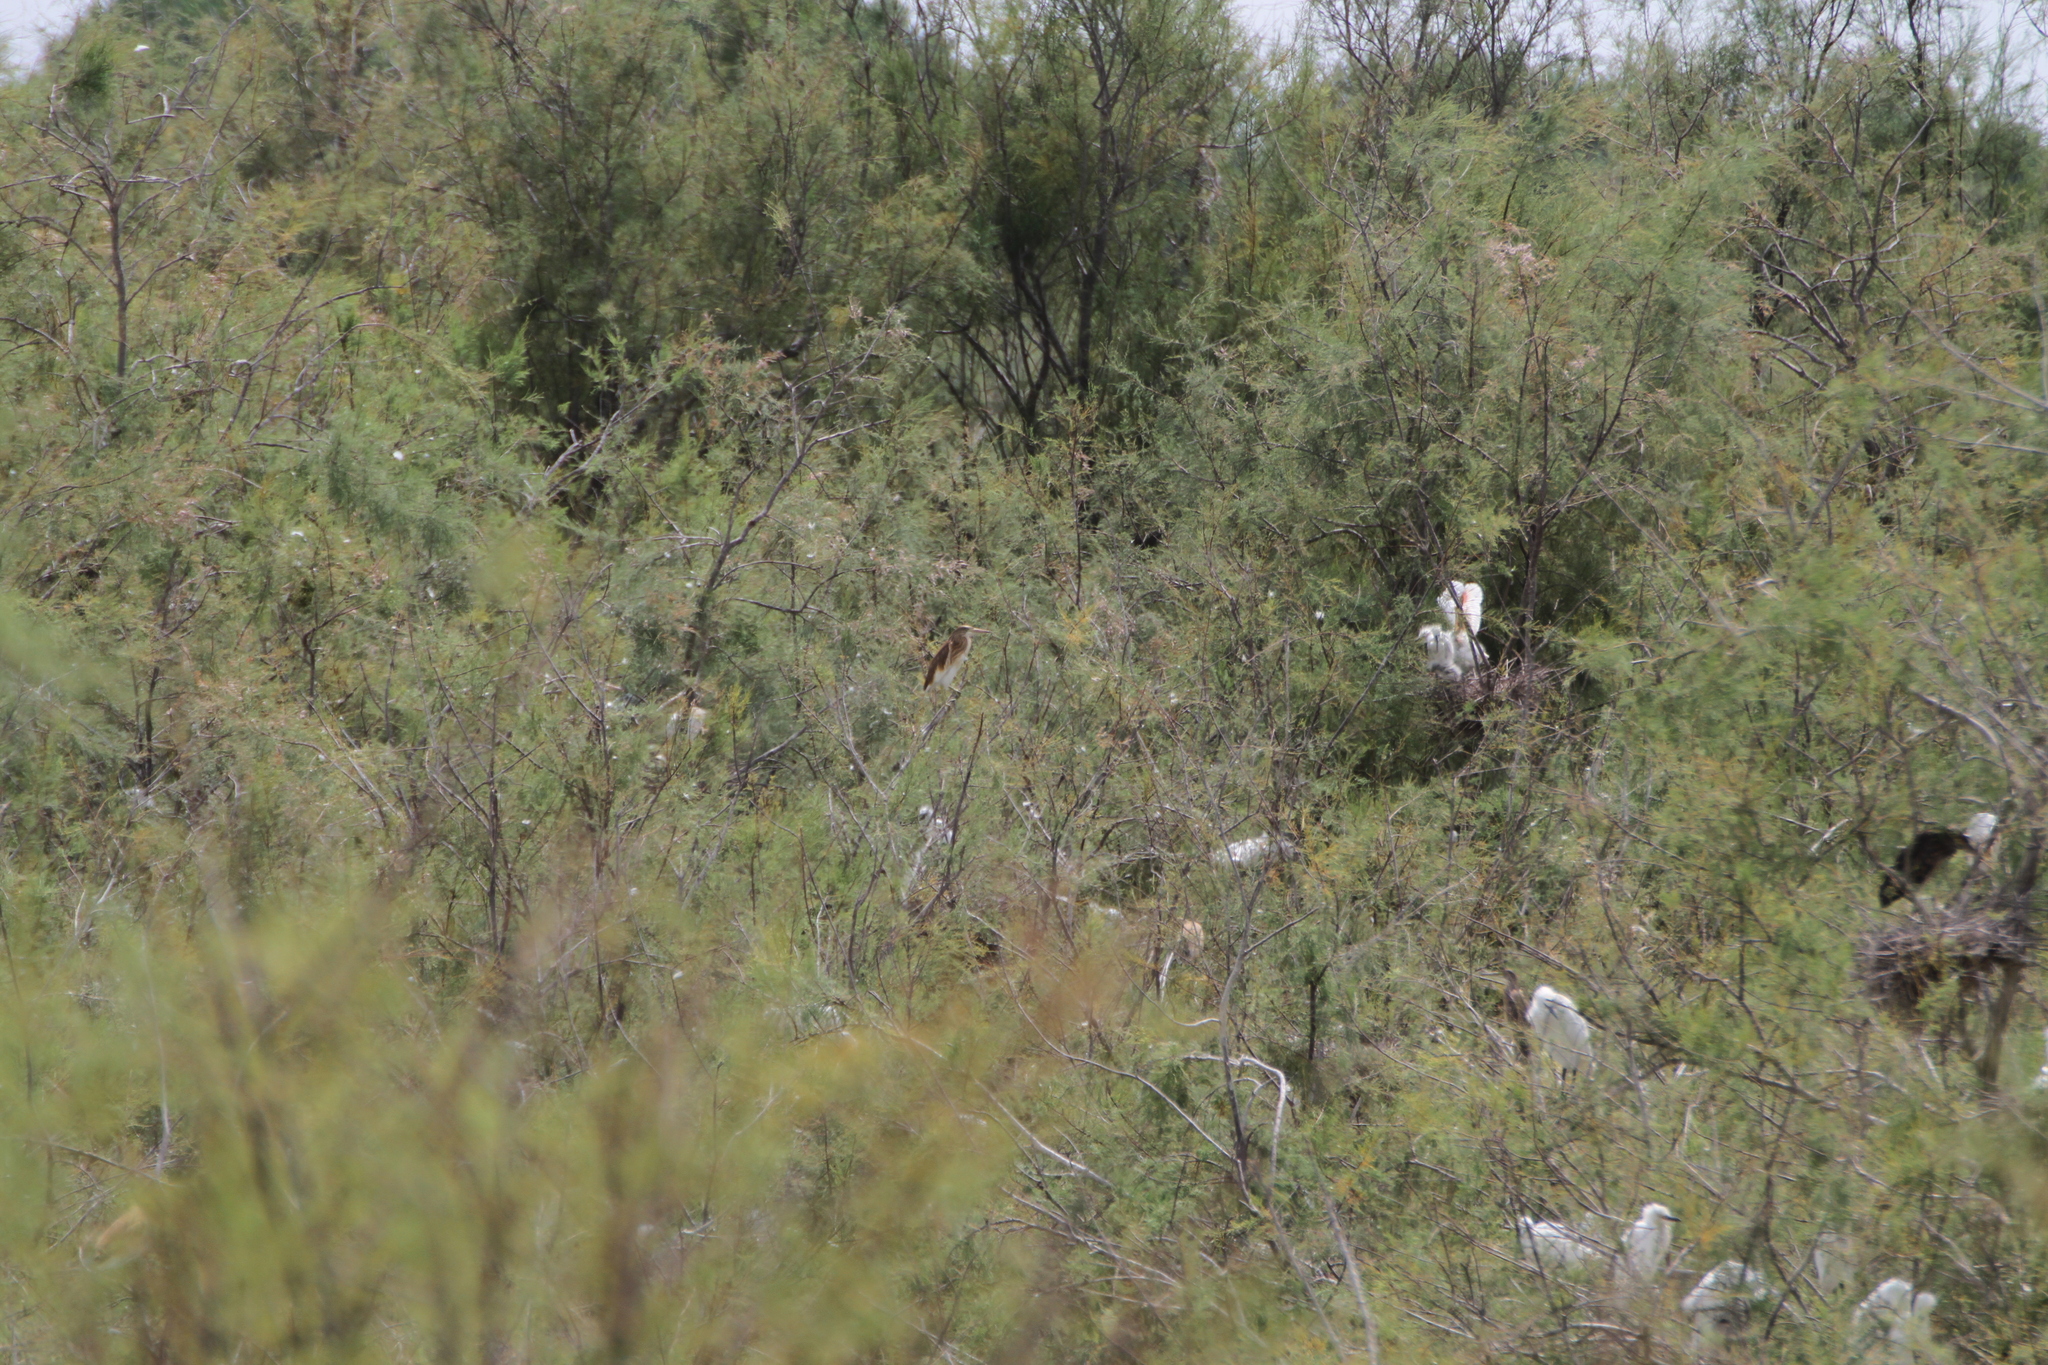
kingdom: Animalia
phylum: Chordata
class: Aves
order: Pelecaniformes
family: Ardeidae
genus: Ardeola
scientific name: Ardeola ralloides
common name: Squacco heron
